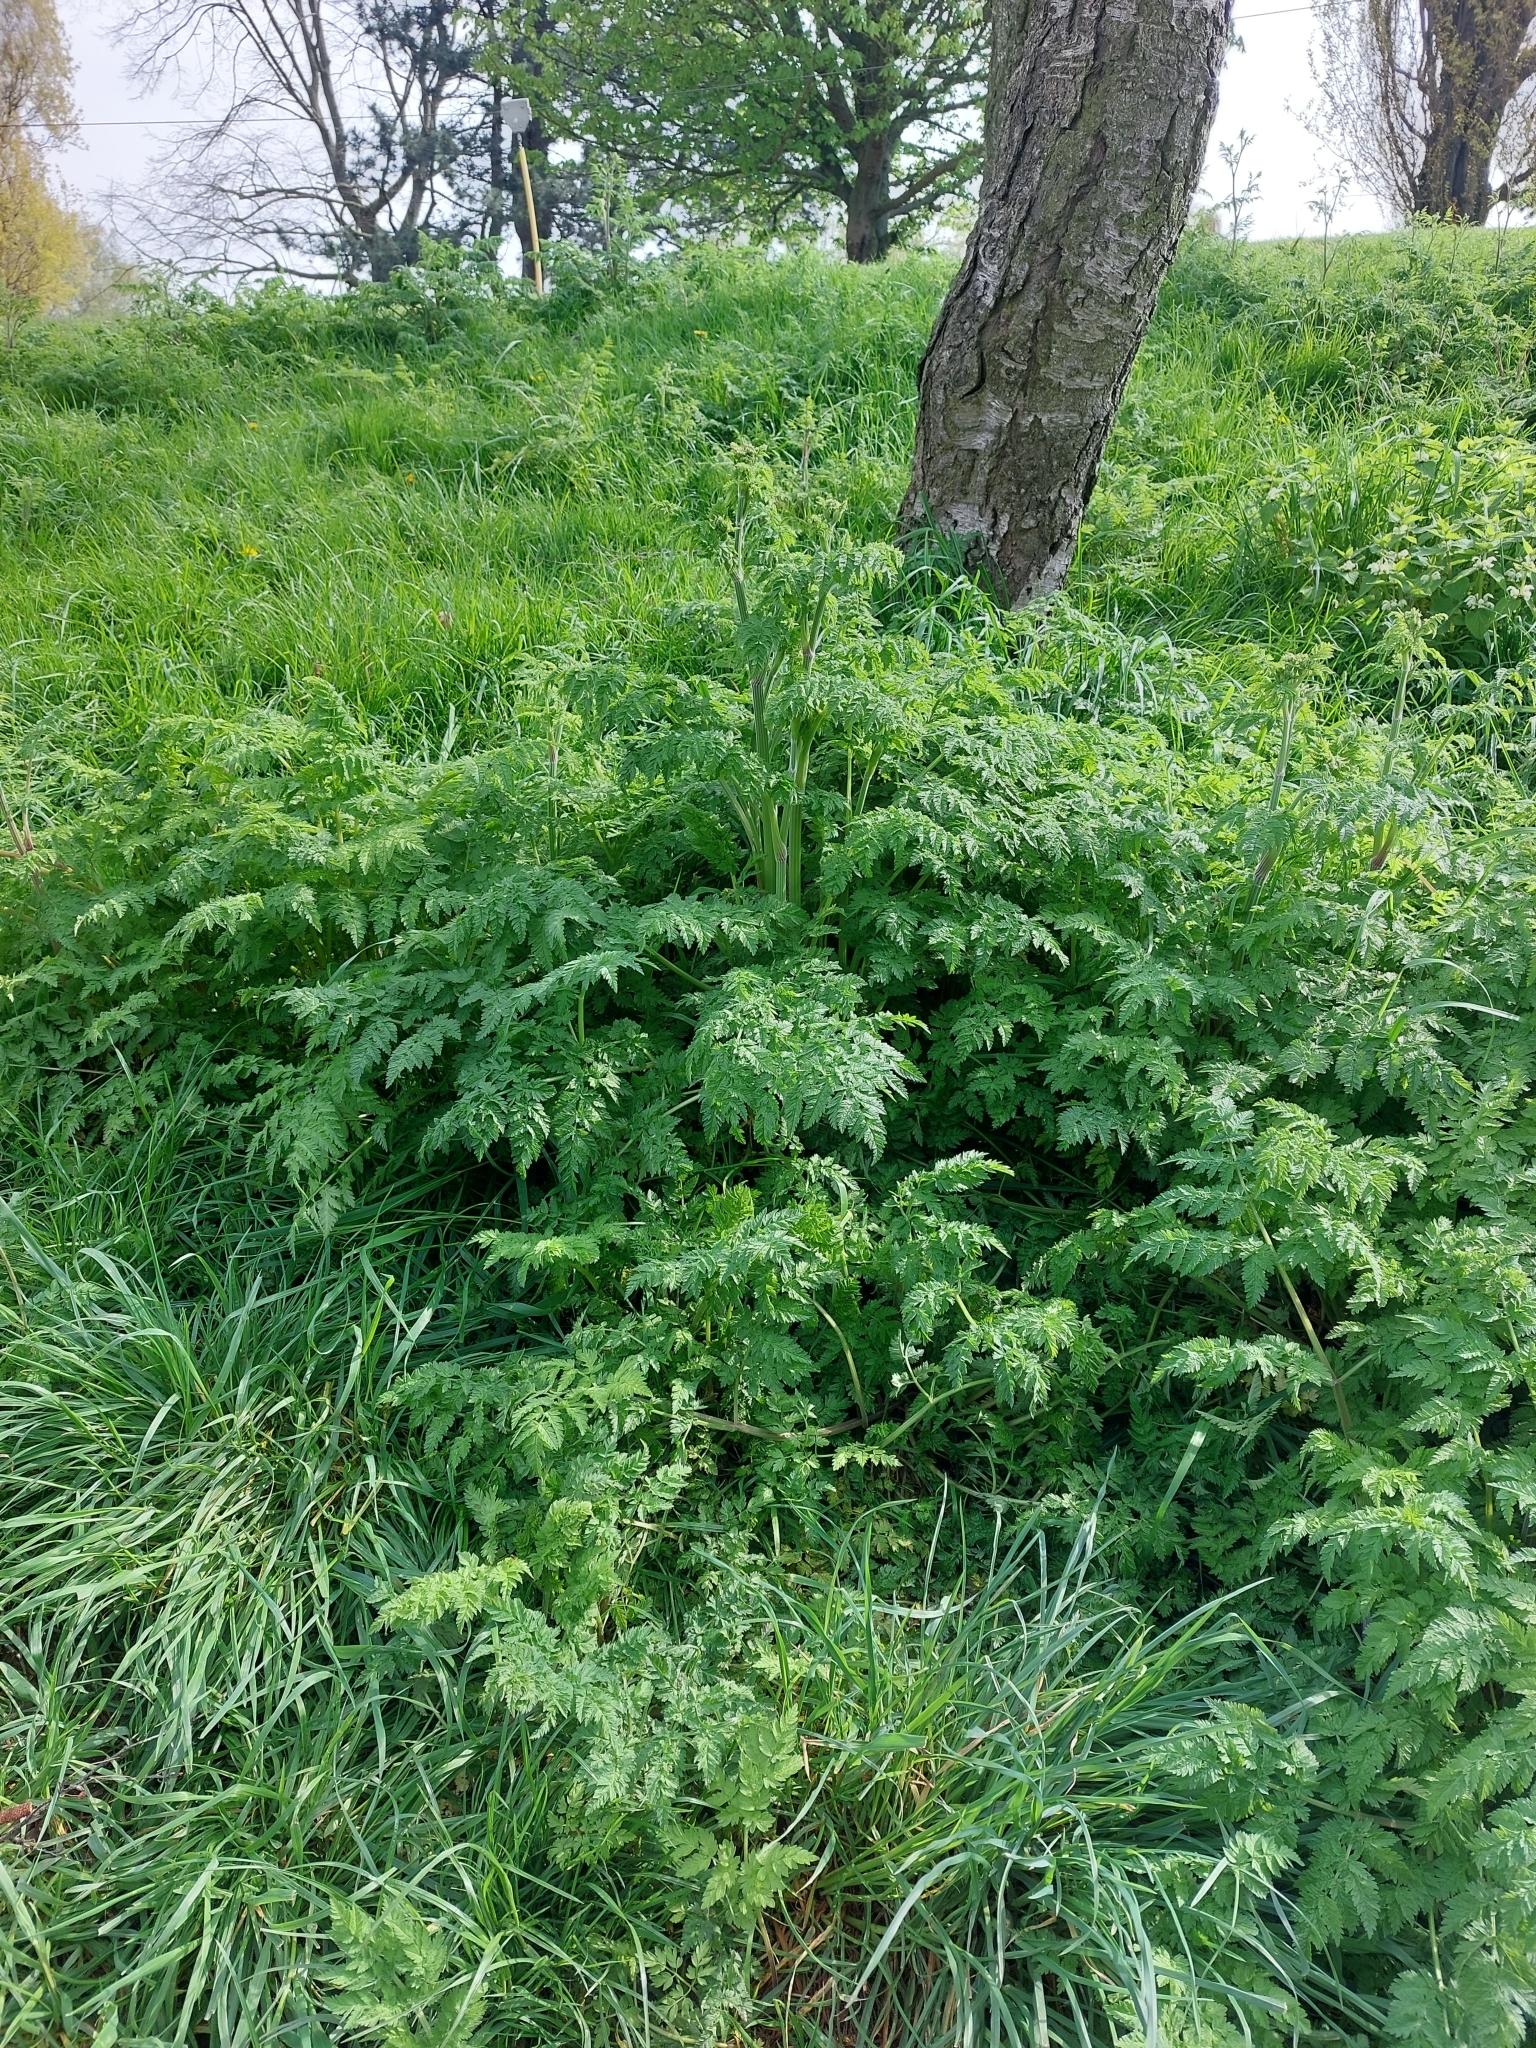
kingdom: Plantae
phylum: Tracheophyta
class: Magnoliopsida
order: Apiales
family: Apiaceae
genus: Anthriscus
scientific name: Anthriscus sylvestris
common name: Cow parsley
